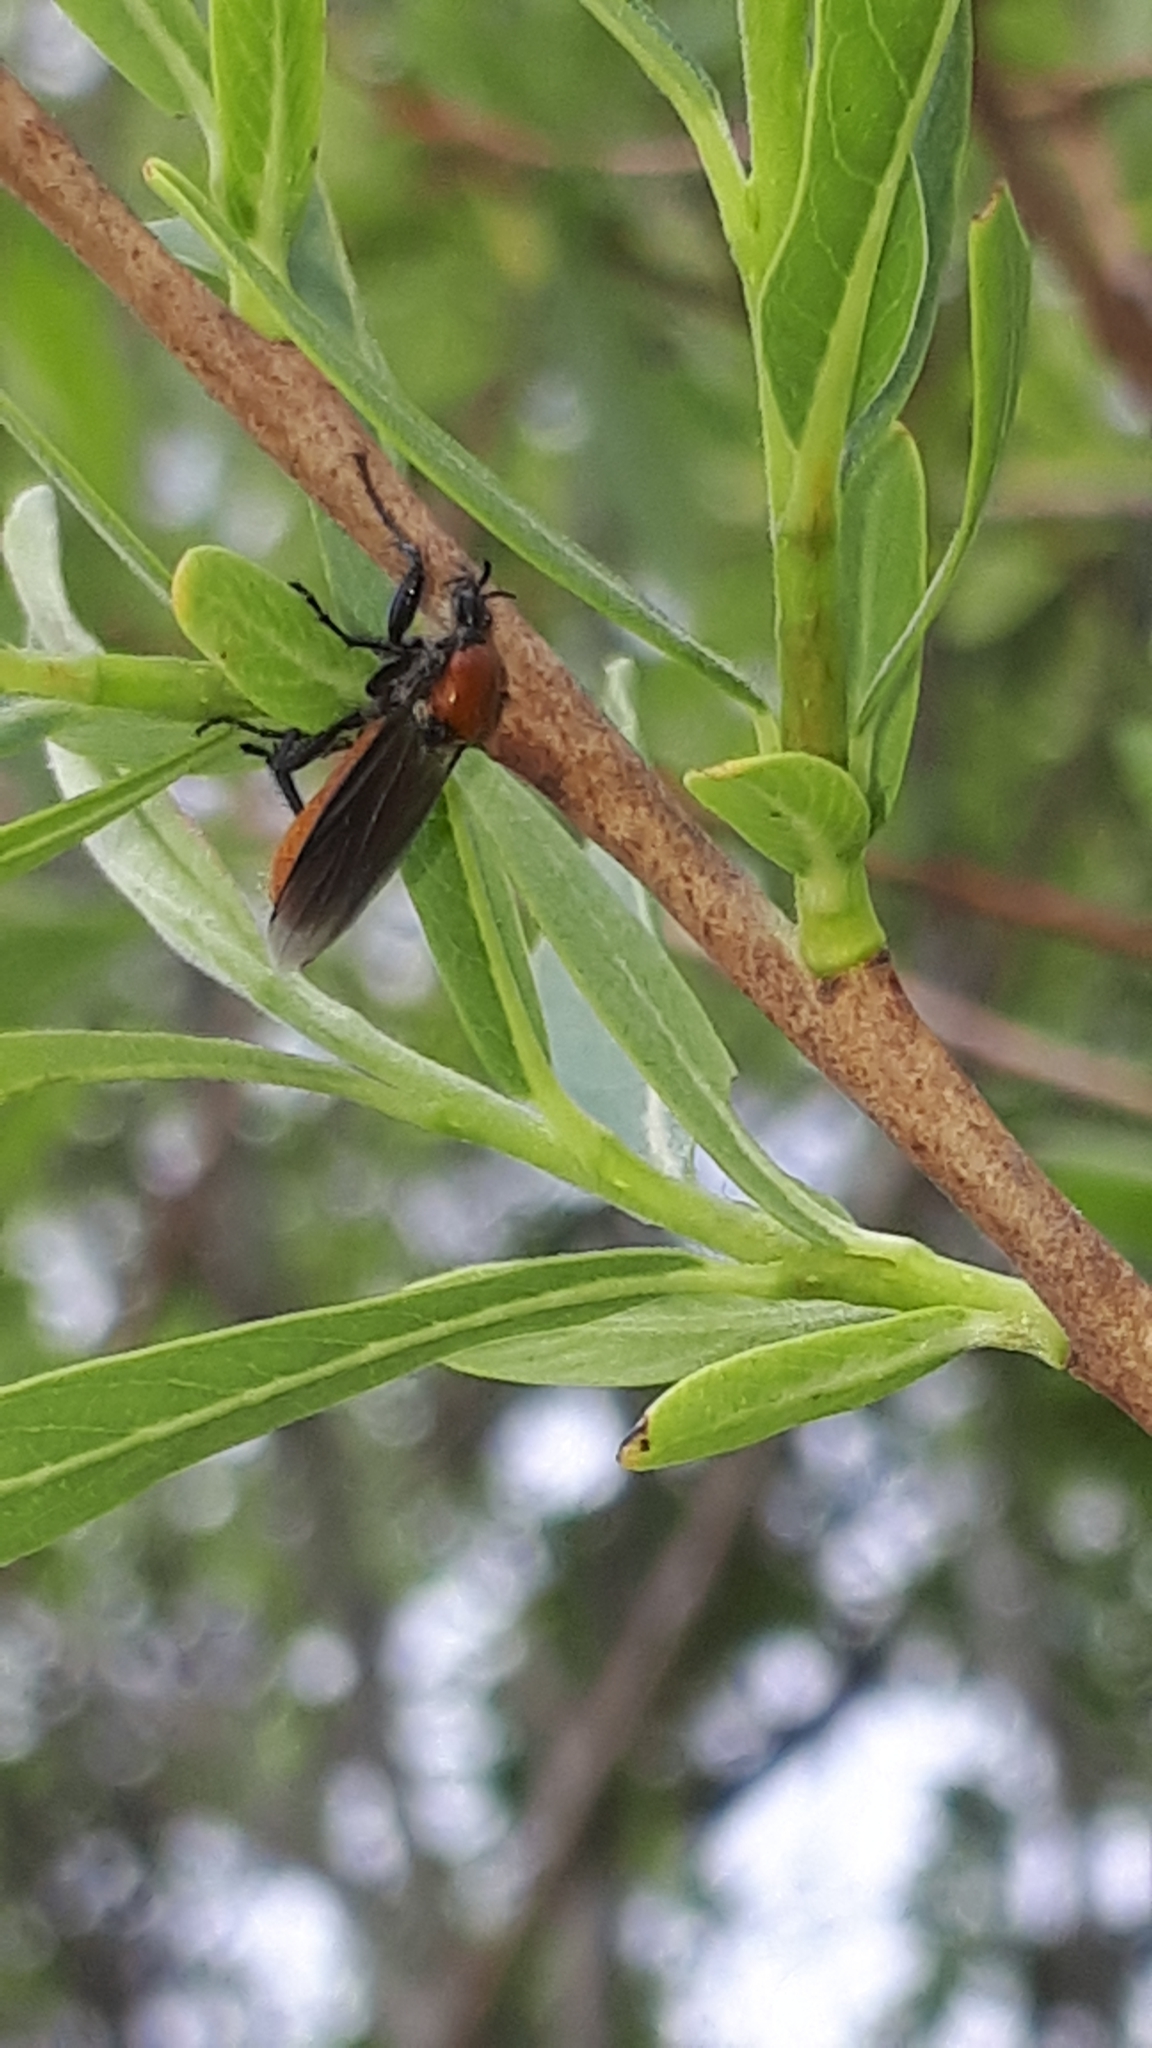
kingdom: Animalia
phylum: Arthropoda
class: Insecta
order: Diptera
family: Bibionidae
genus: Bibio
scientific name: Bibio hortulanus
